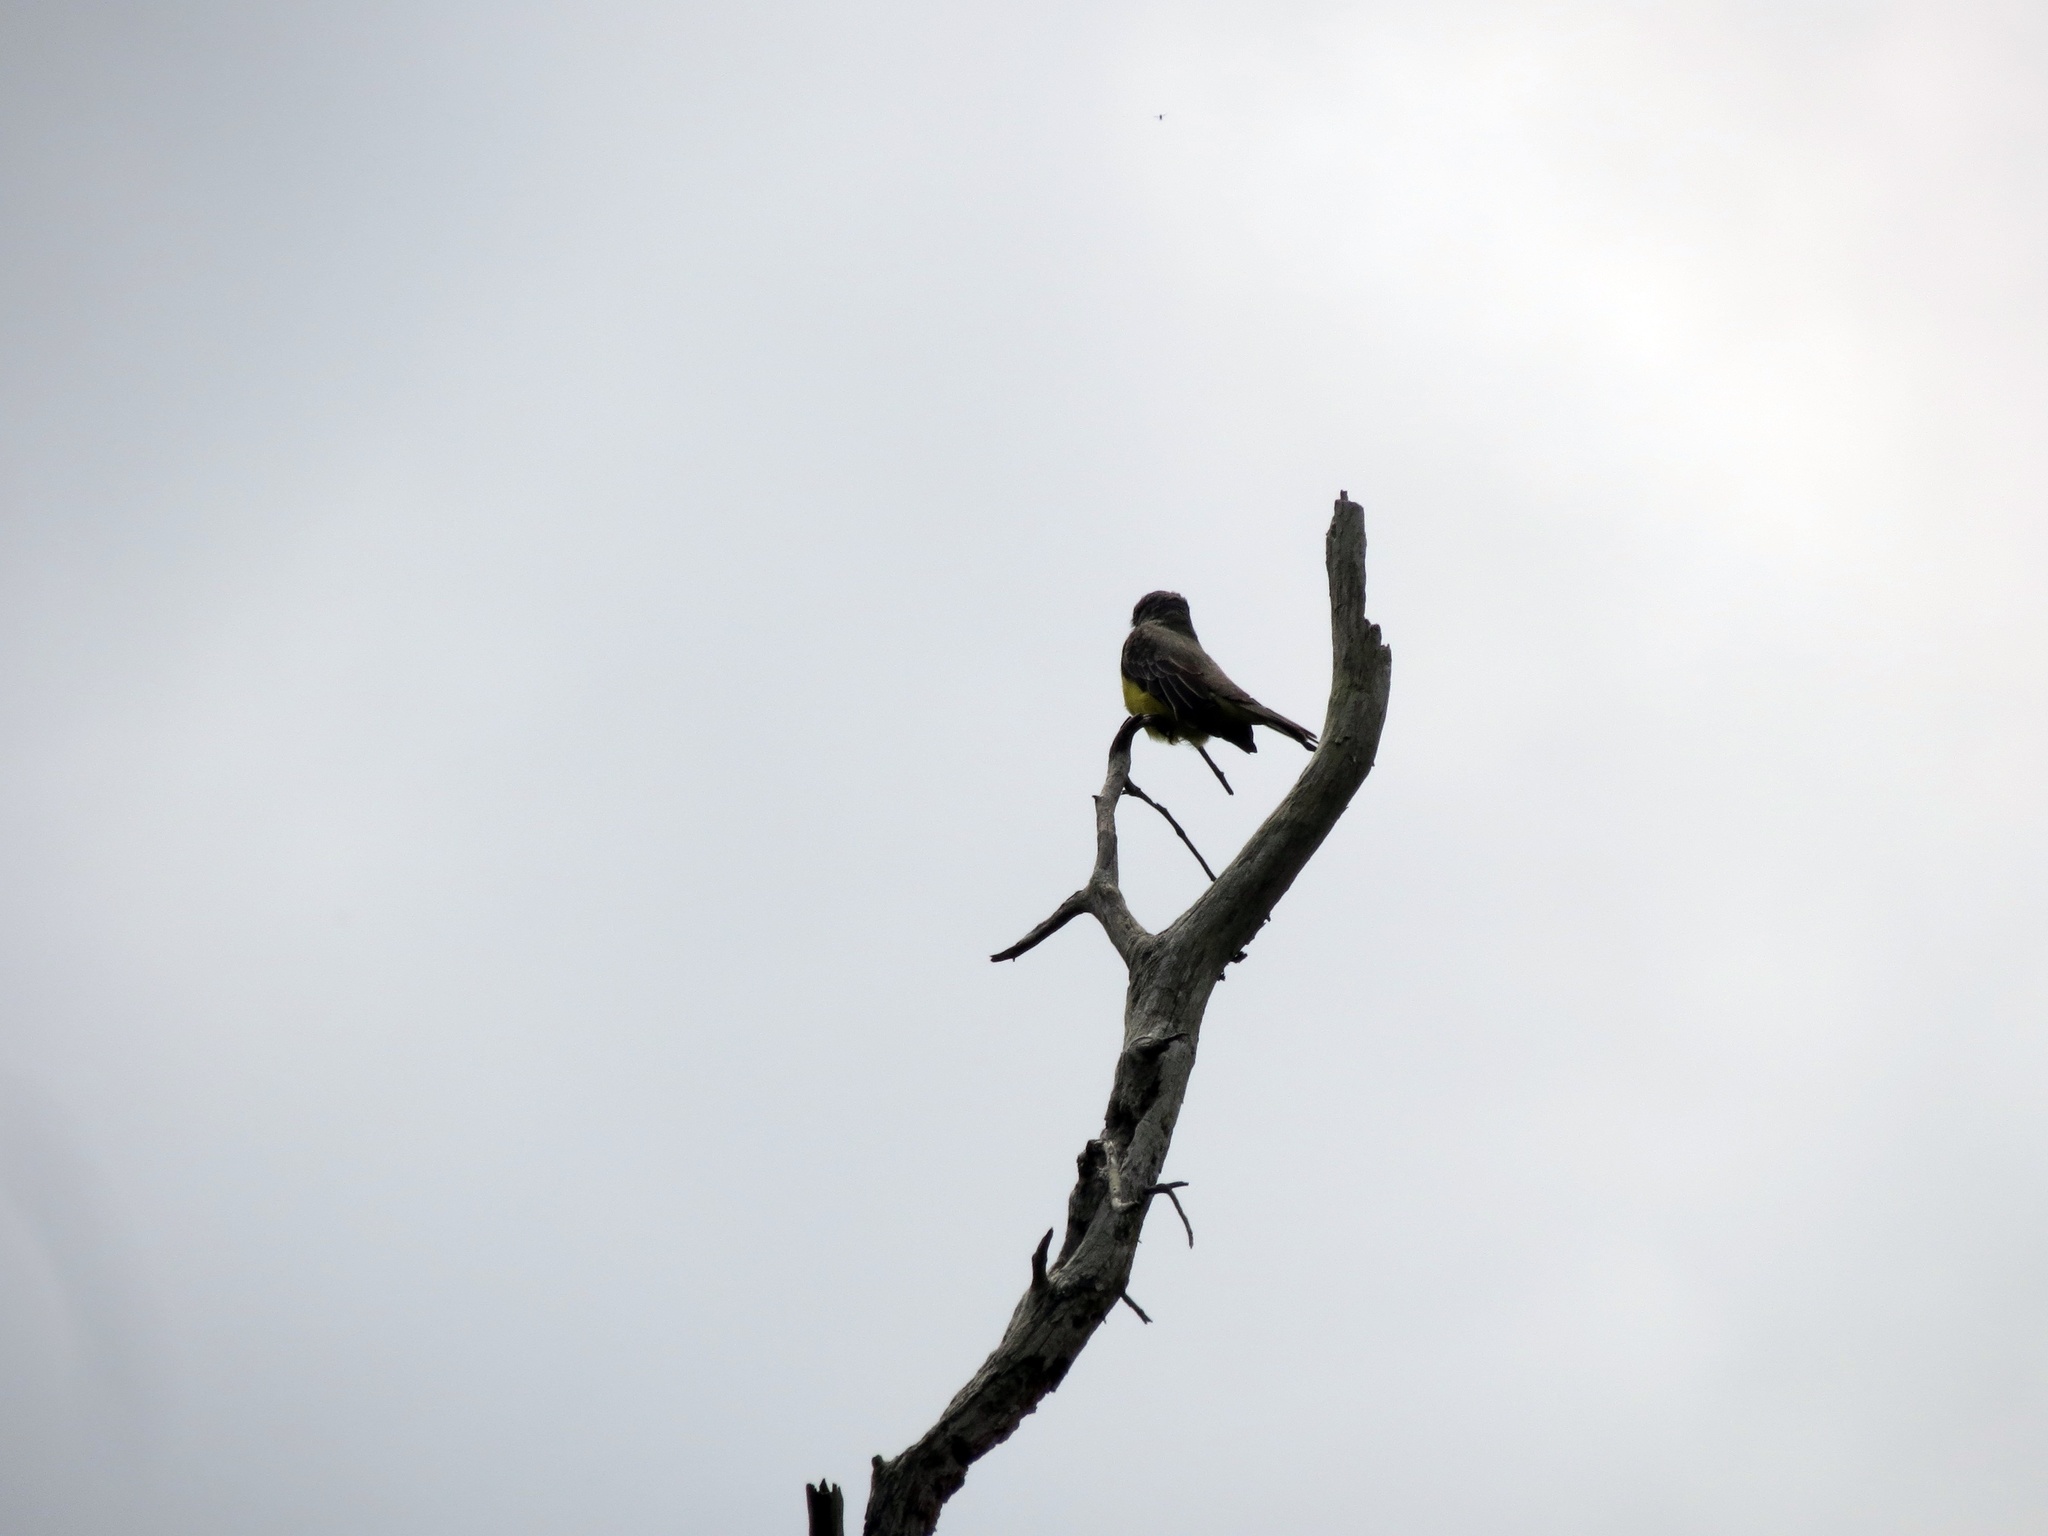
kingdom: Animalia
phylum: Chordata
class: Aves
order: Passeriformes
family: Tyrannidae
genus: Tyrannus
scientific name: Tyrannus melancholicus
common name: Tropical kingbird
